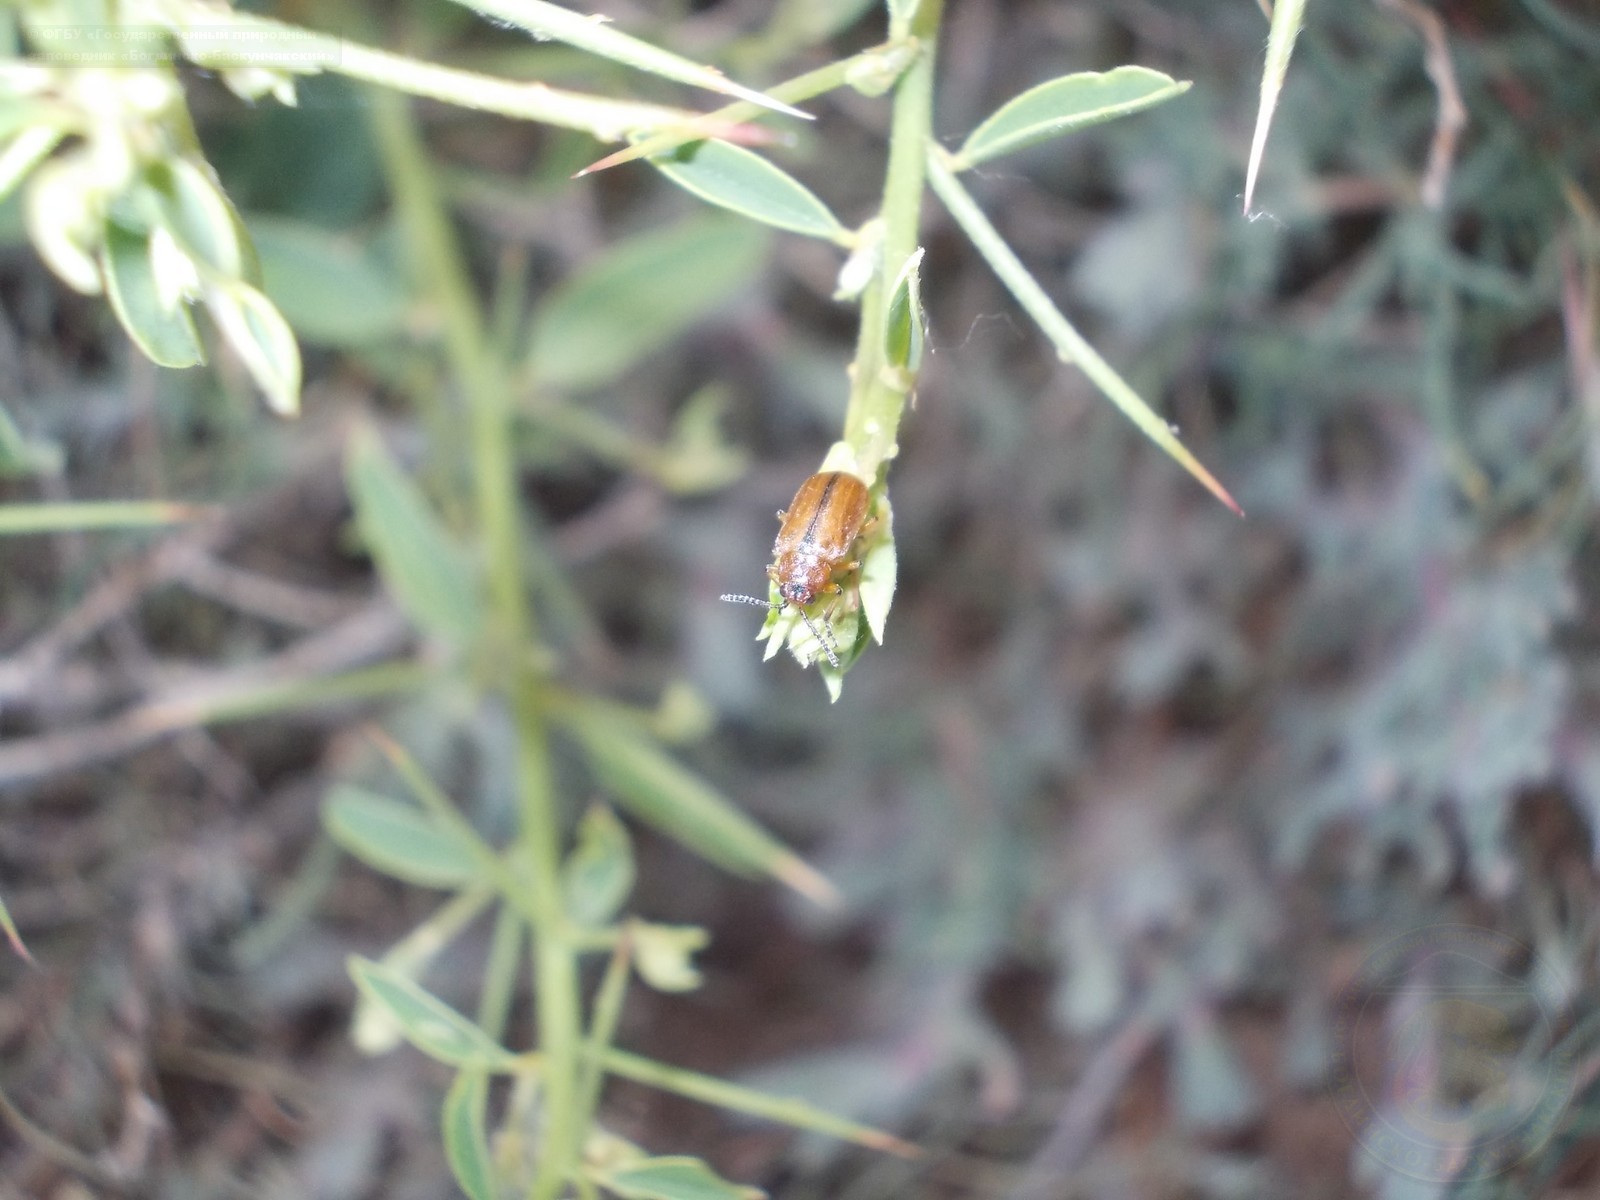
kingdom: Plantae
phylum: Tracheophyta
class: Magnoliopsida
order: Fabales
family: Fabaceae
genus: Alhagi
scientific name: Alhagi pseudalhagi
